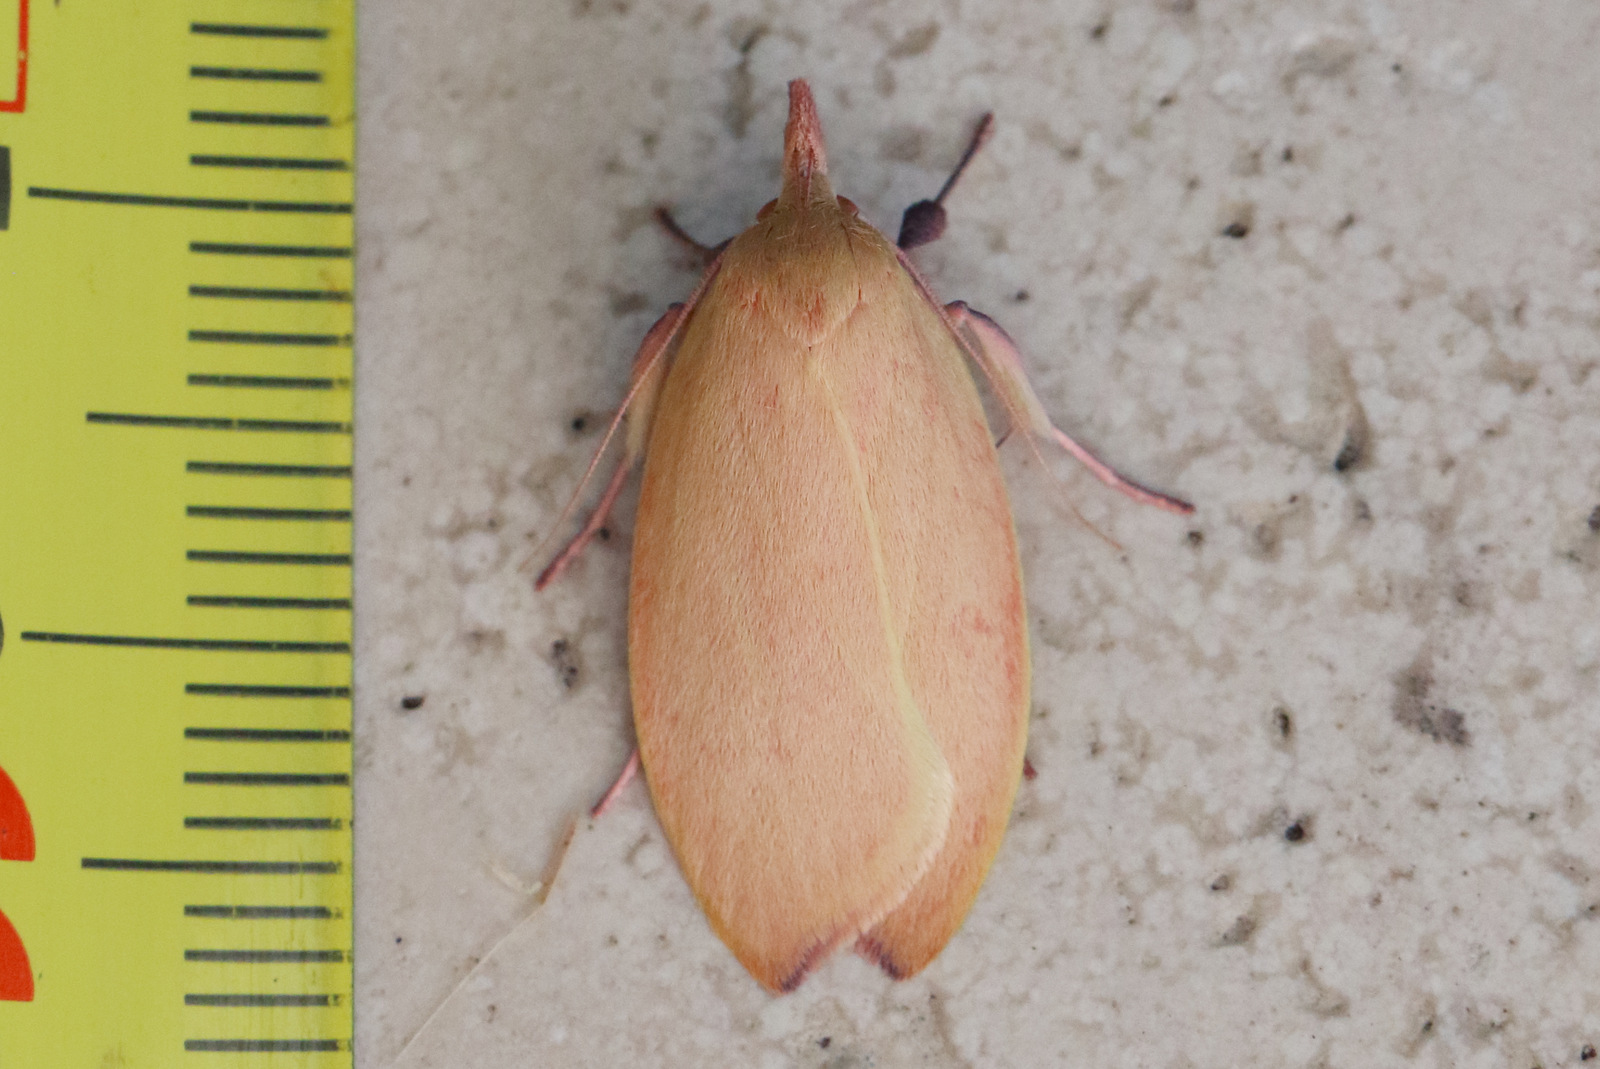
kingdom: Animalia
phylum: Arthropoda
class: Insecta
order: Lepidoptera
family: Oecophoridae
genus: Wingia
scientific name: Wingia rectiorella
